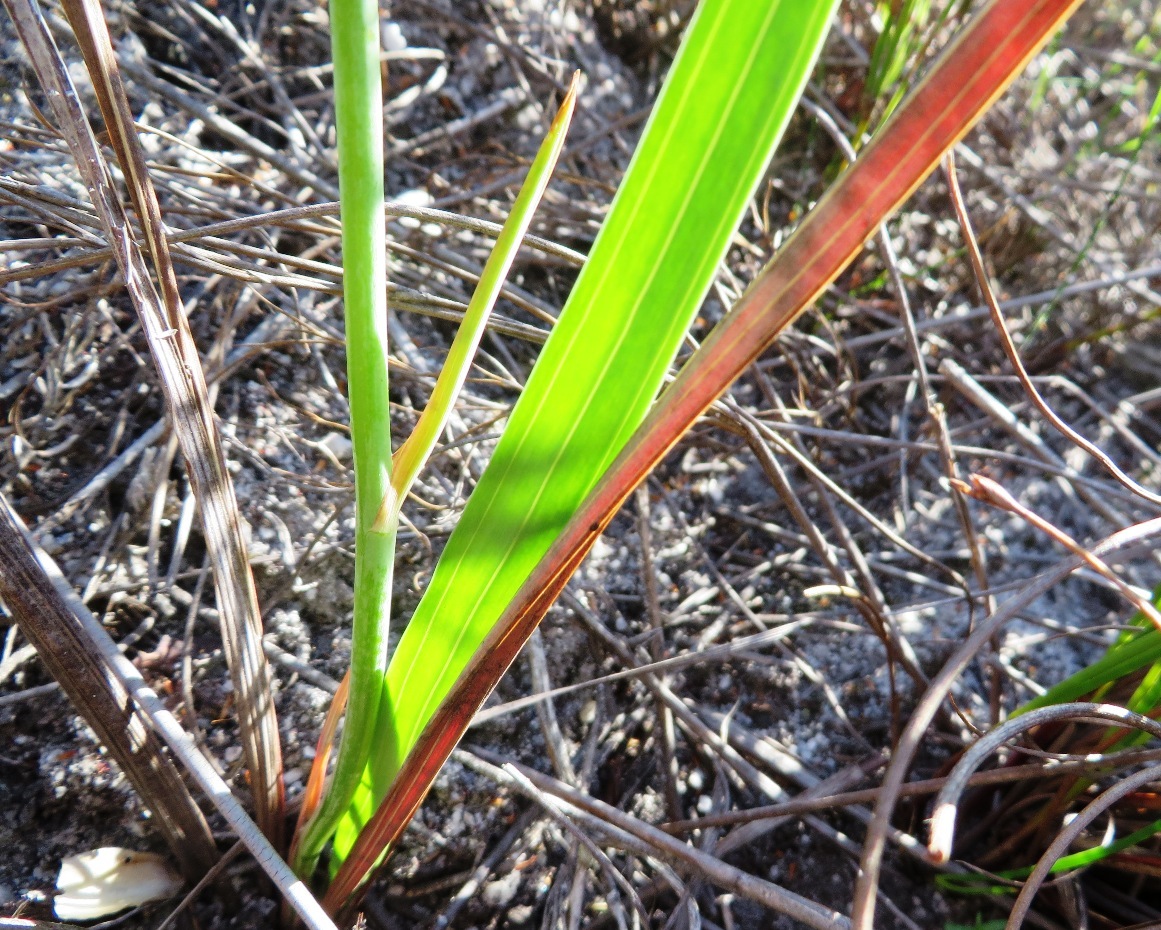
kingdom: Plantae
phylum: Tracheophyta
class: Liliopsida
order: Asparagales
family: Iridaceae
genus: Tritoniopsis
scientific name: Tritoniopsis lata
